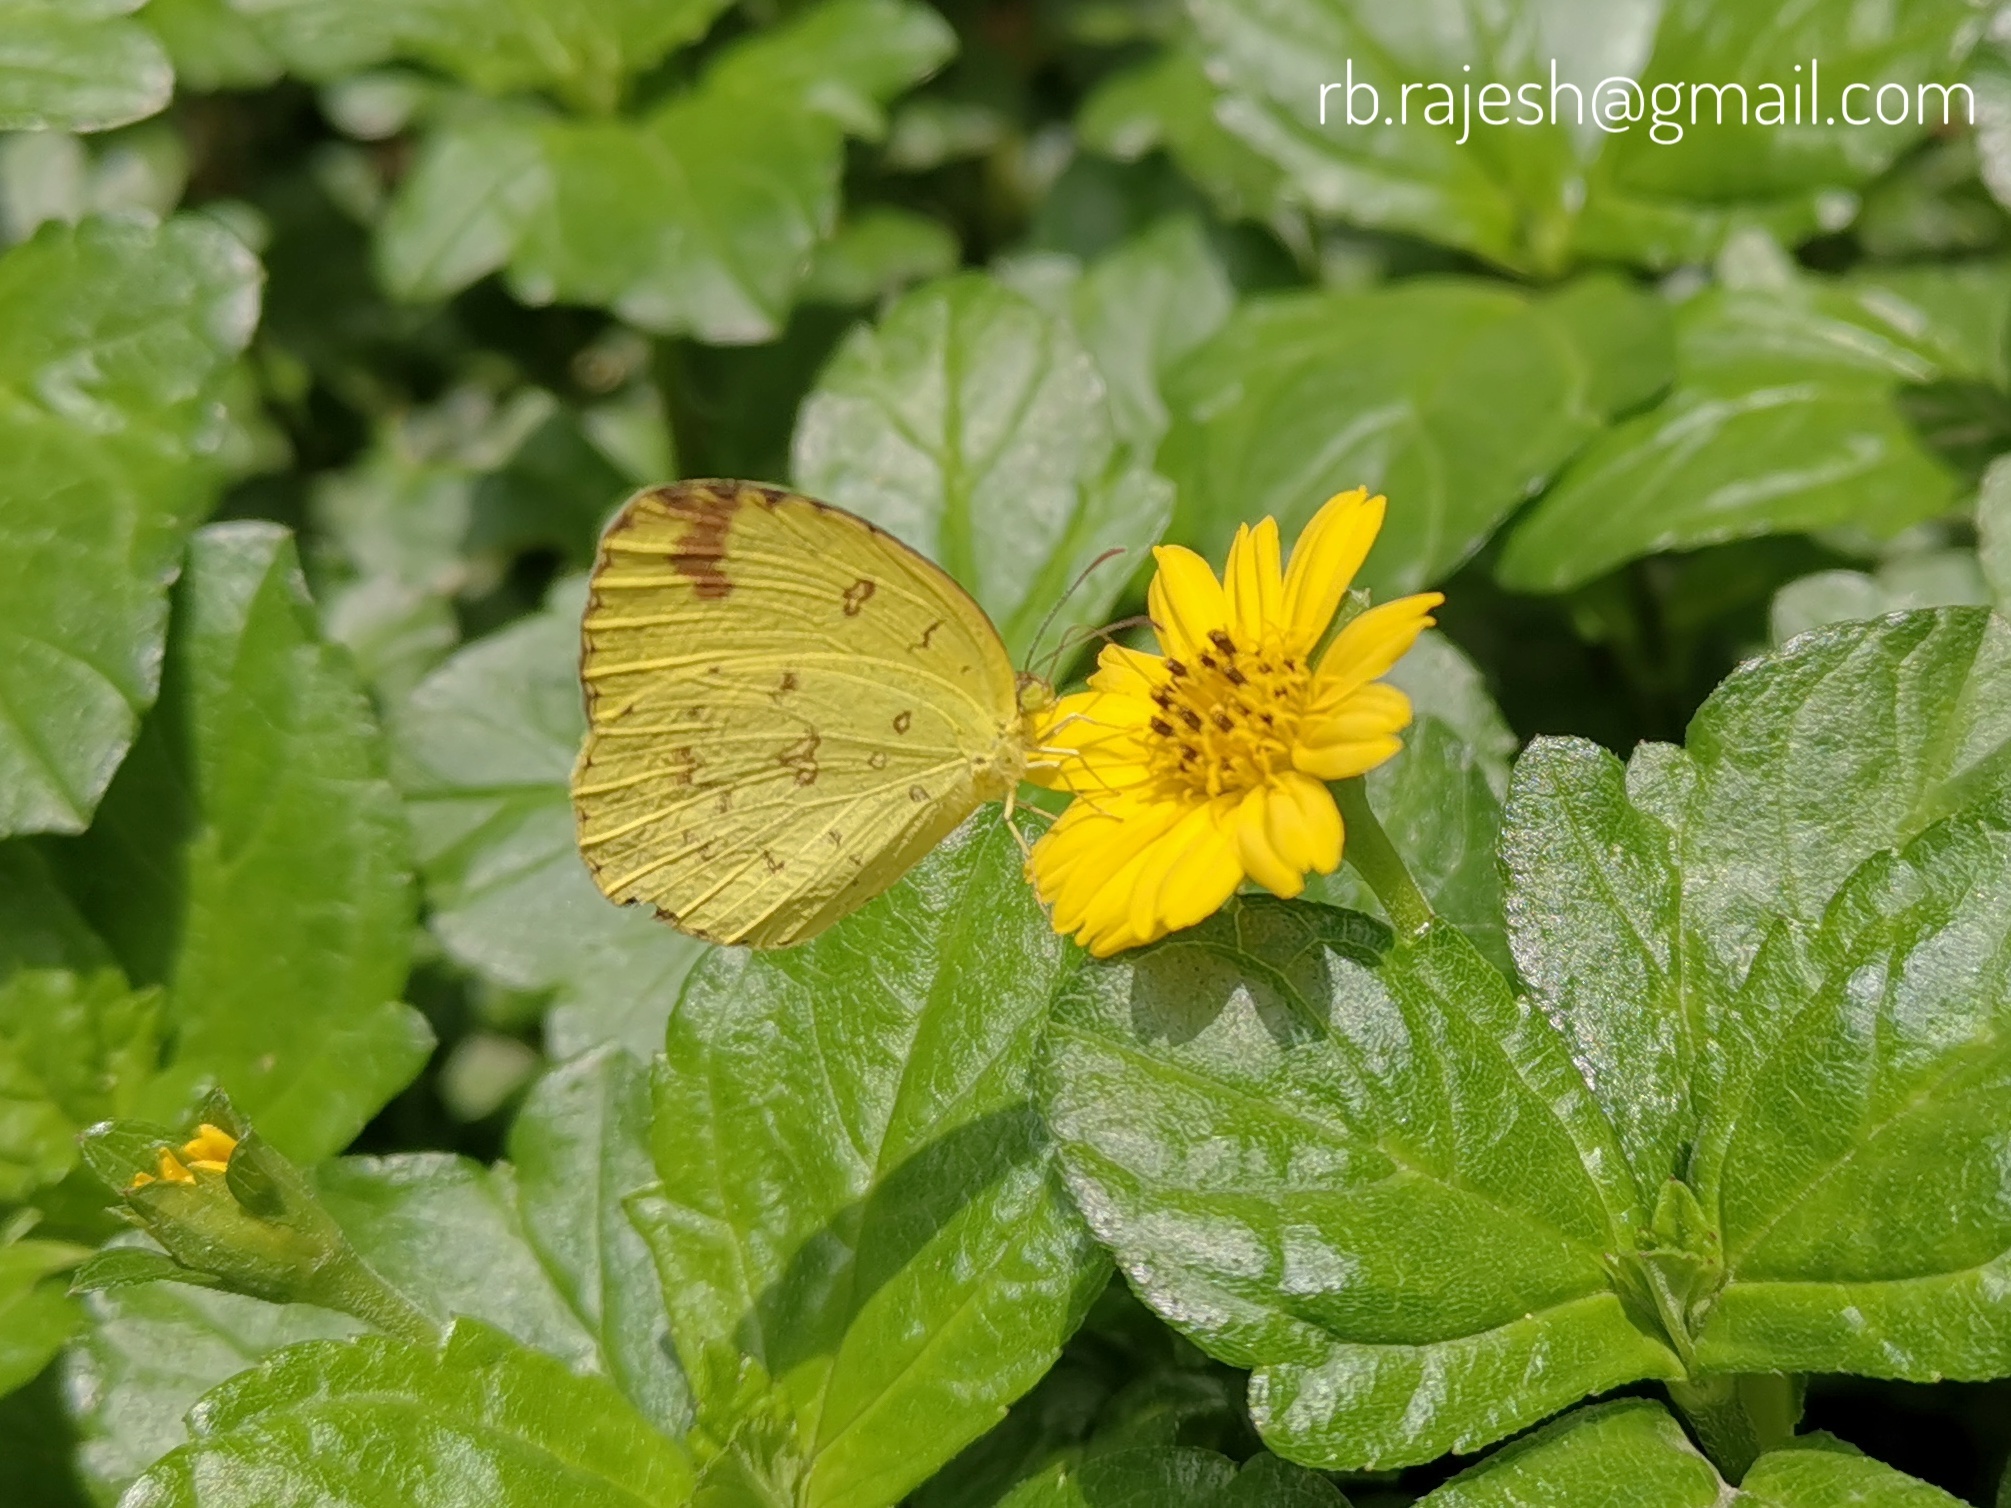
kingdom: Animalia
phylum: Arthropoda
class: Insecta
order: Lepidoptera
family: Pieridae
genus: Eurema
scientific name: Eurema hecabe
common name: Pale grass yellow
